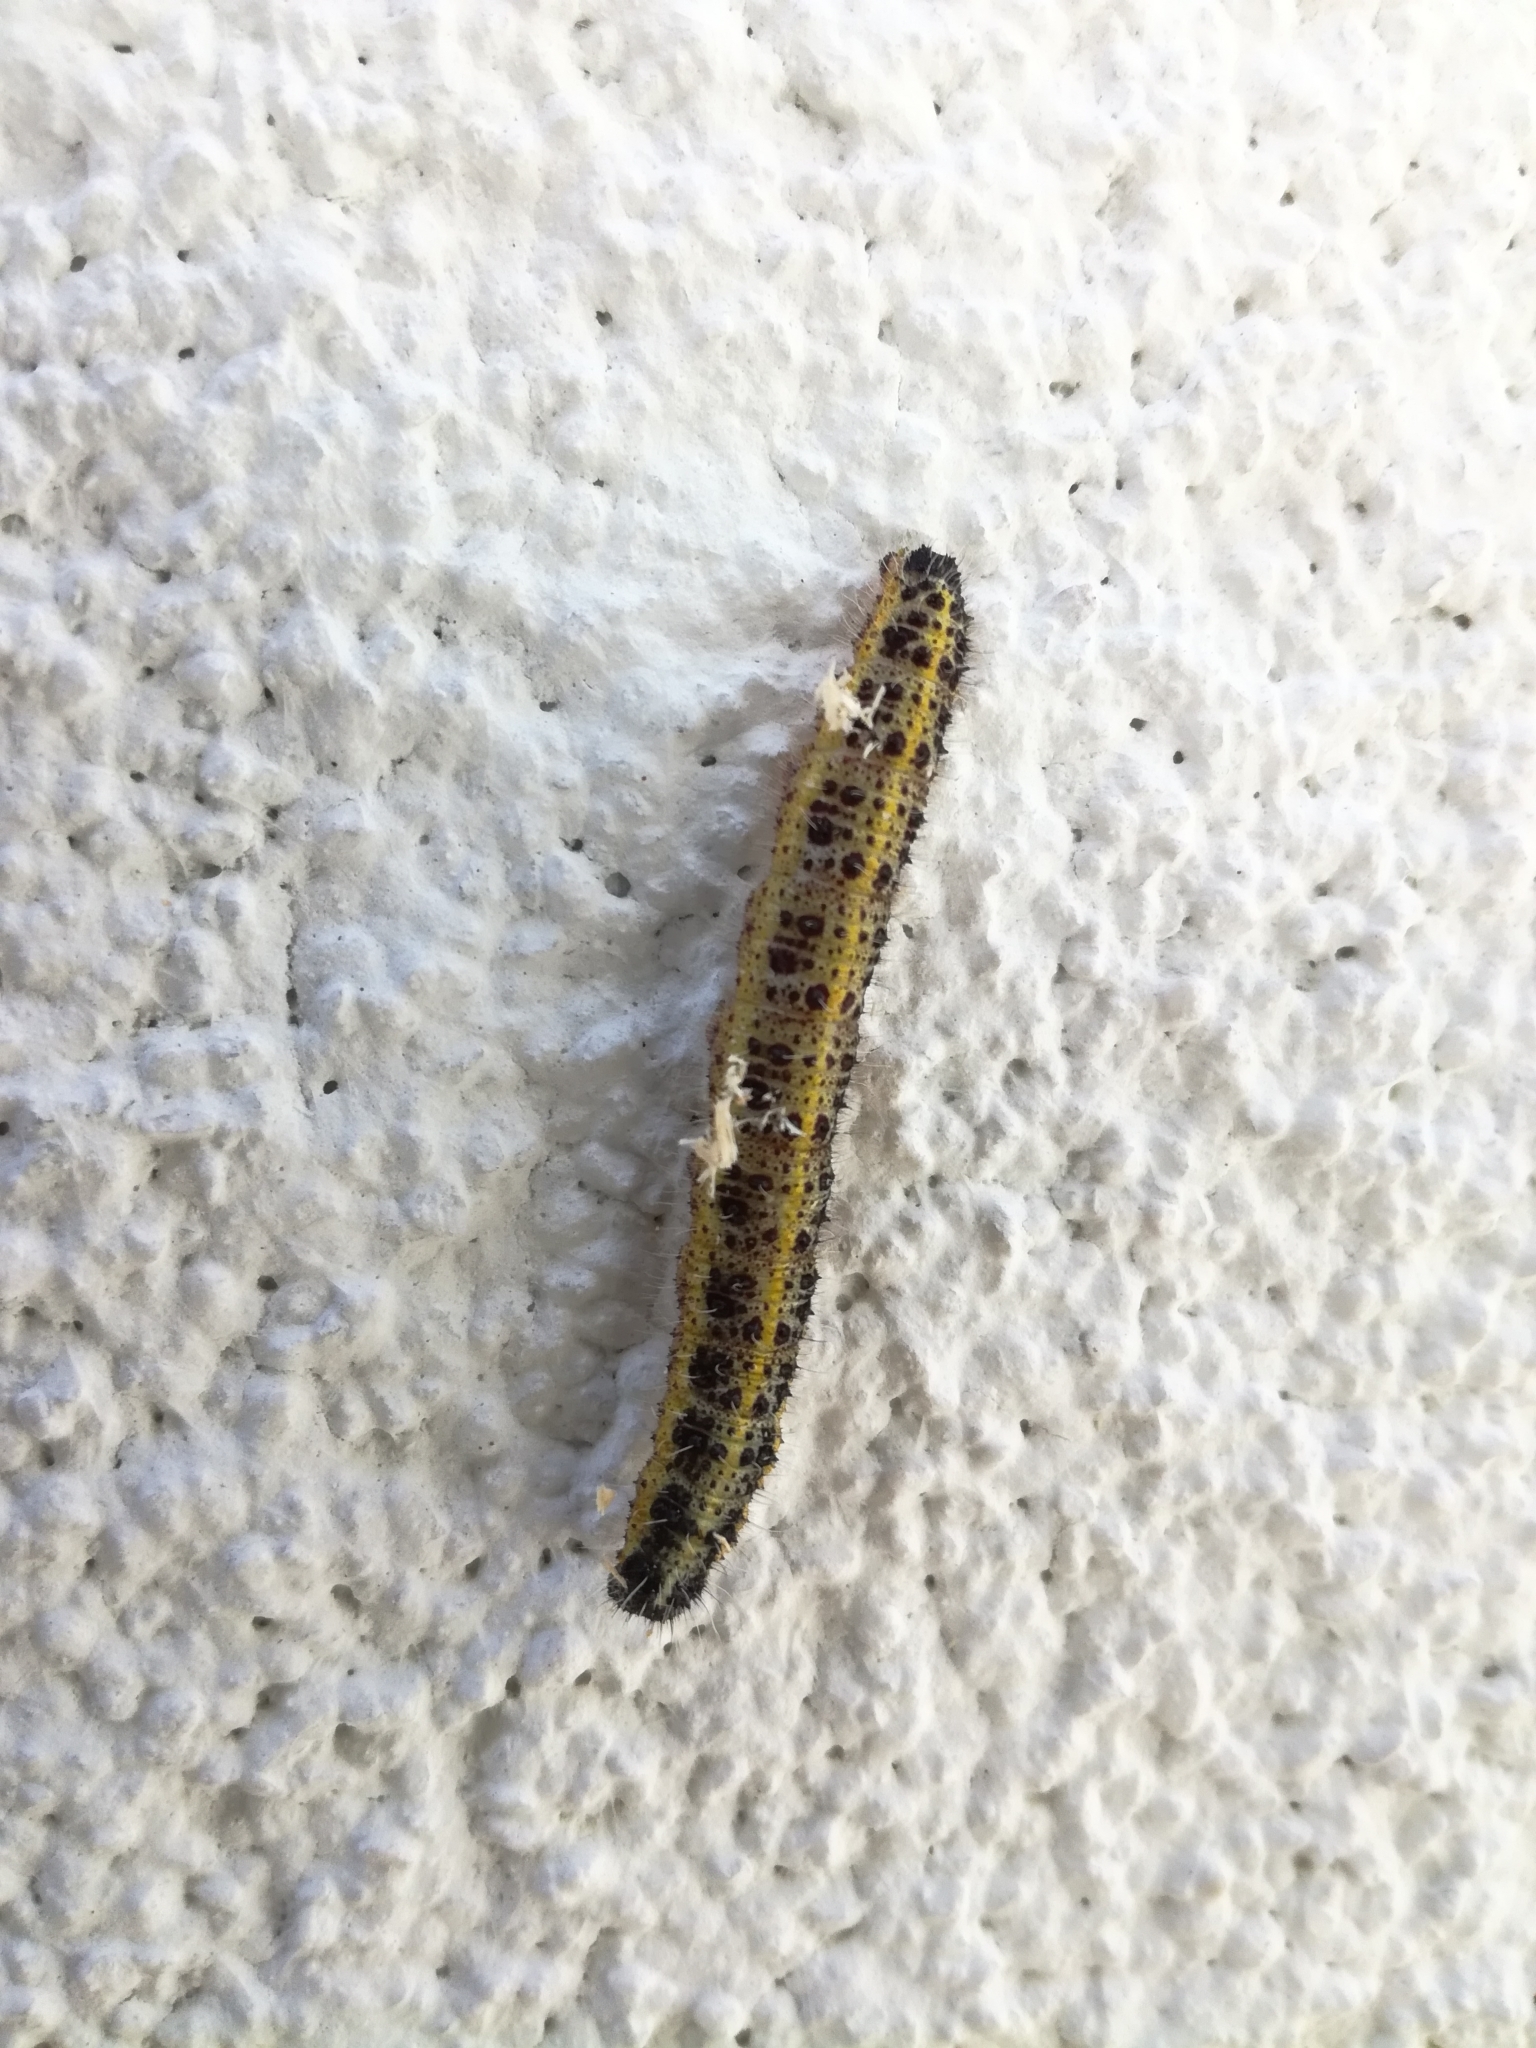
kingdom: Animalia
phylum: Arthropoda
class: Insecta
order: Lepidoptera
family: Pieridae
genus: Pieris
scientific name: Pieris brassicae
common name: Large white
